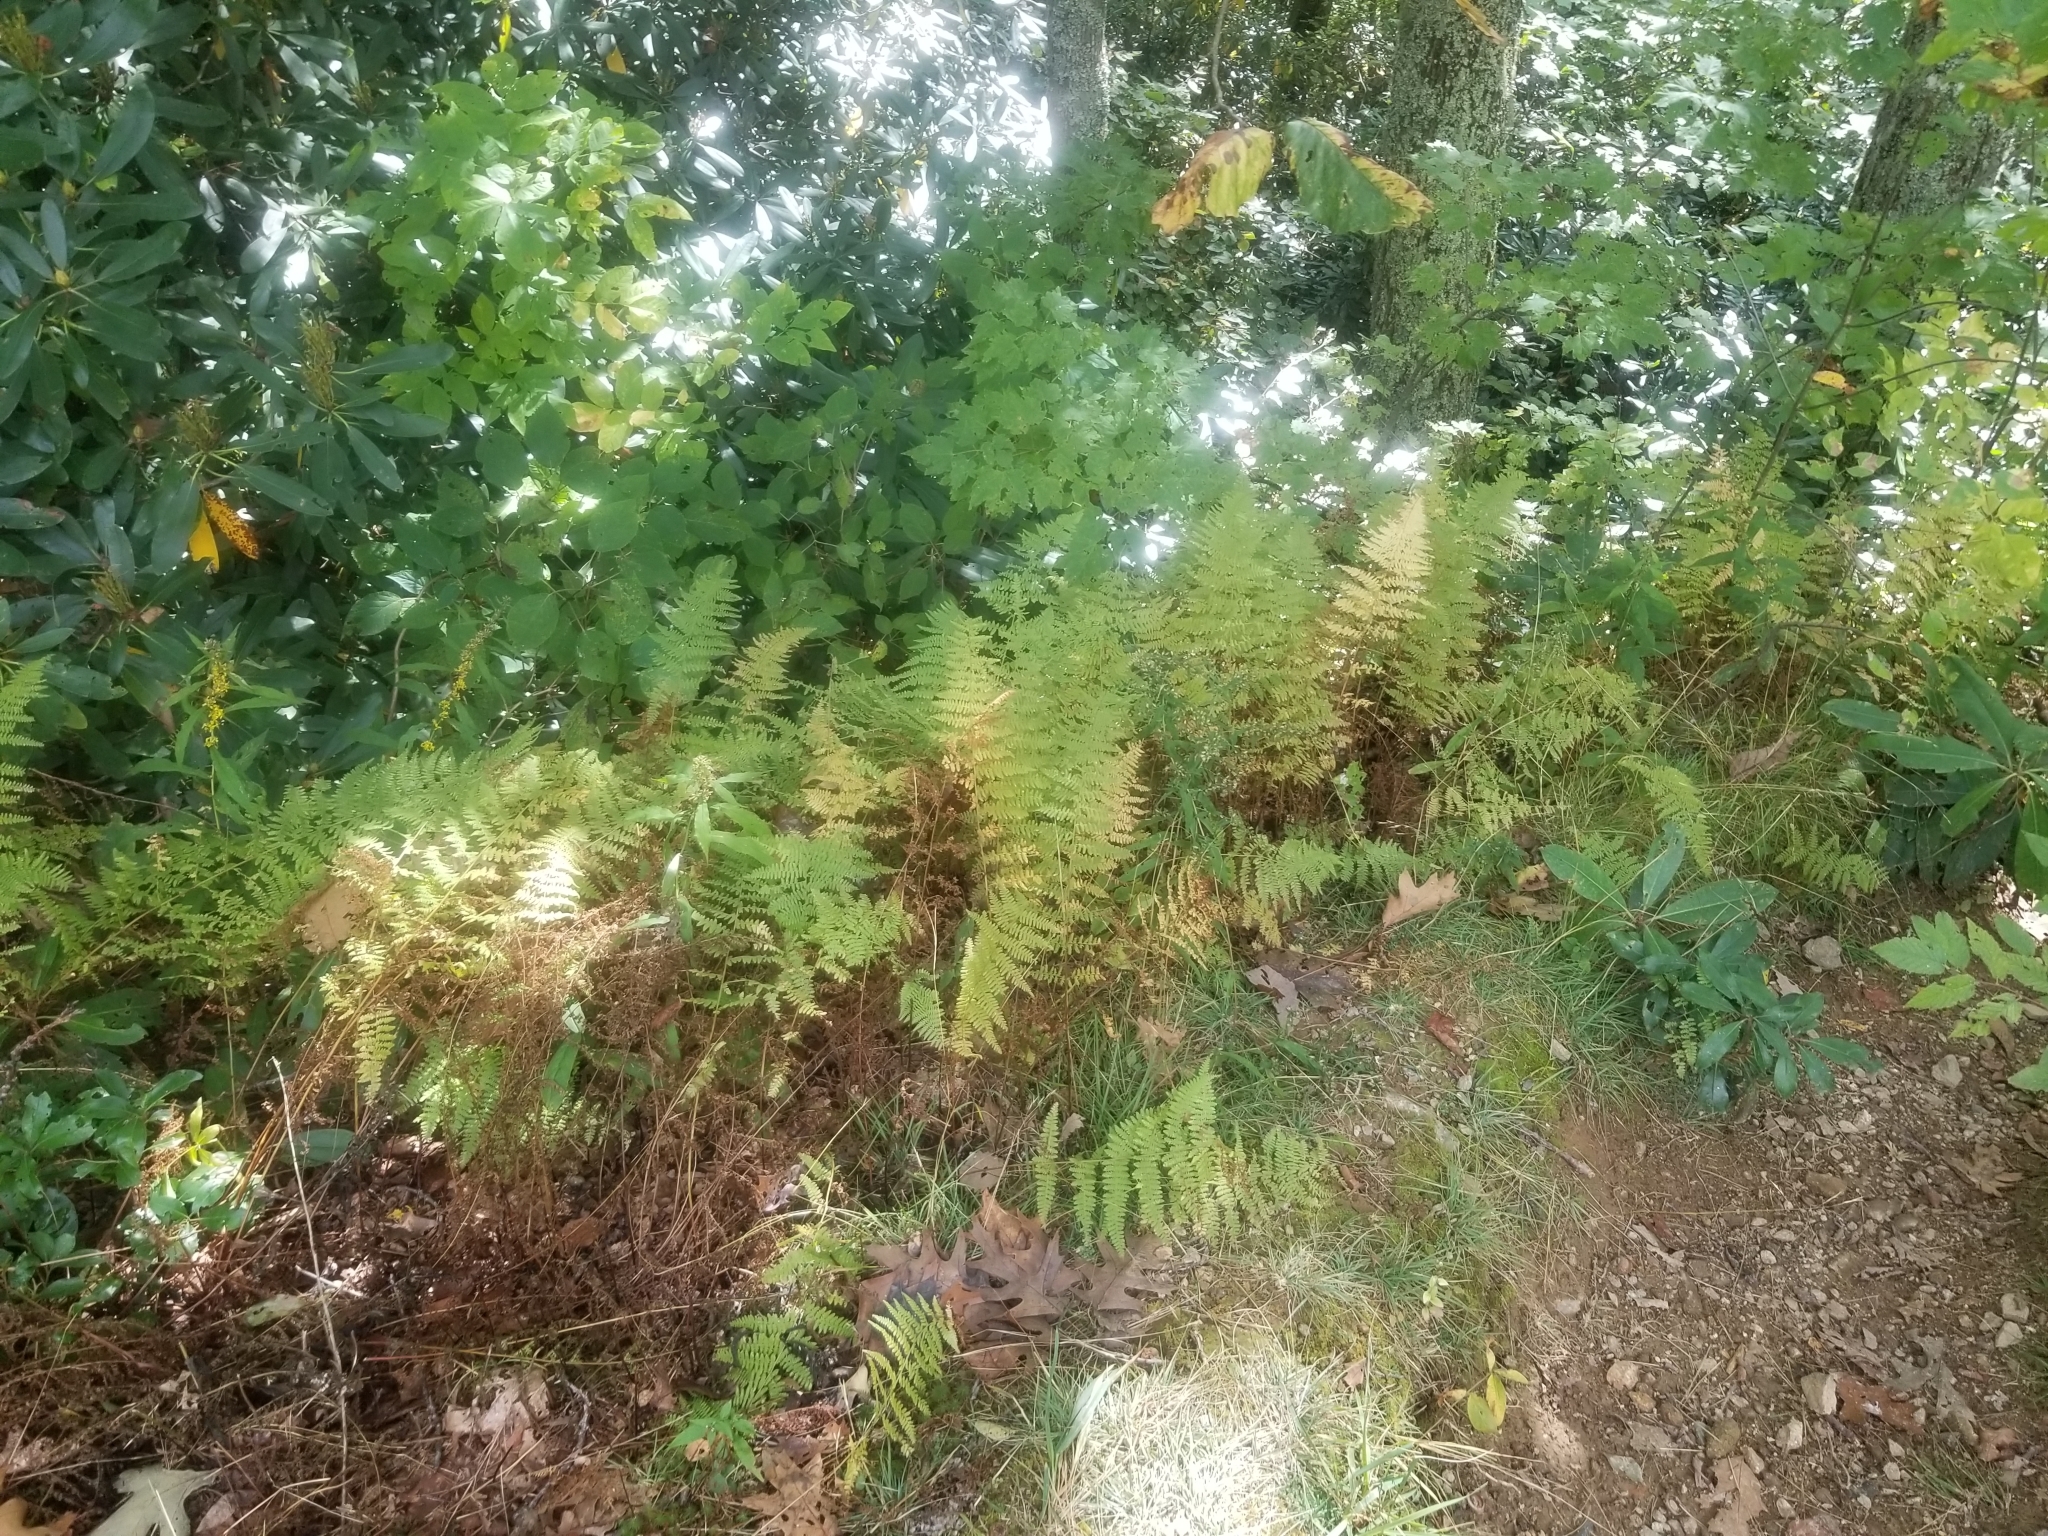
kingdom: Plantae
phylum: Tracheophyta
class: Polypodiopsida
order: Polypodiales
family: Dennstaedtiaceae
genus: Sitobolium
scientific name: Sitobolium punctilobum
